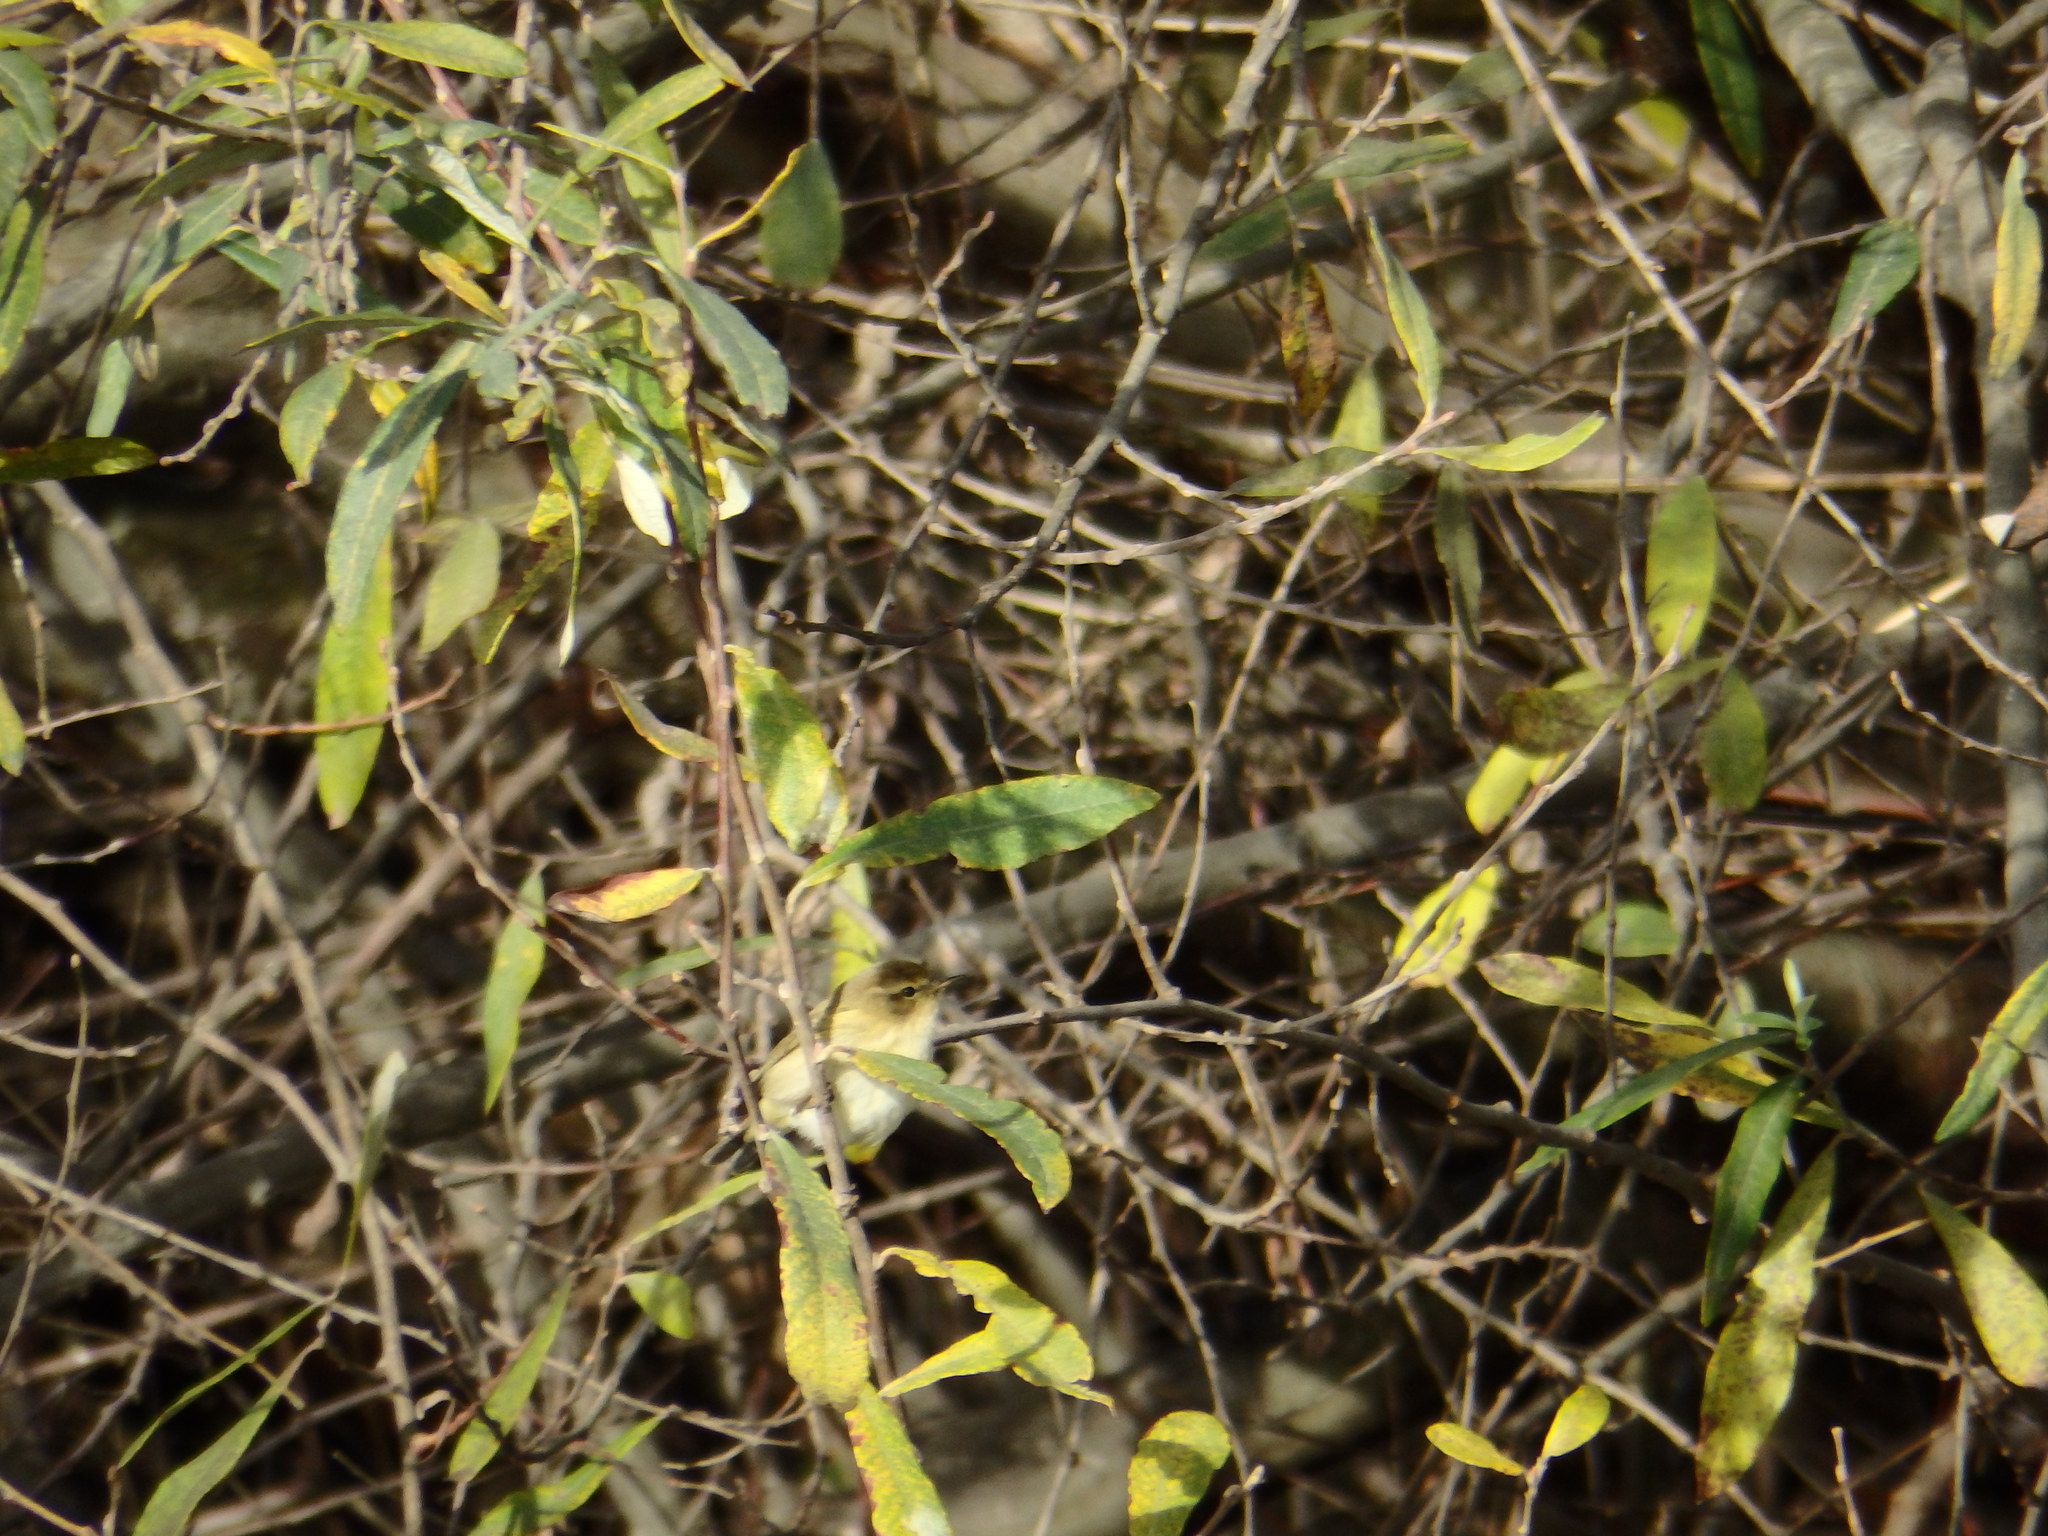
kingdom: Animalia
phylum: Chordata
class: Aves
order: Passeriformes
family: Phylloscopidae
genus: Phylloscopus
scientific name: Phylloscopus collybita
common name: Common chiffchaff
